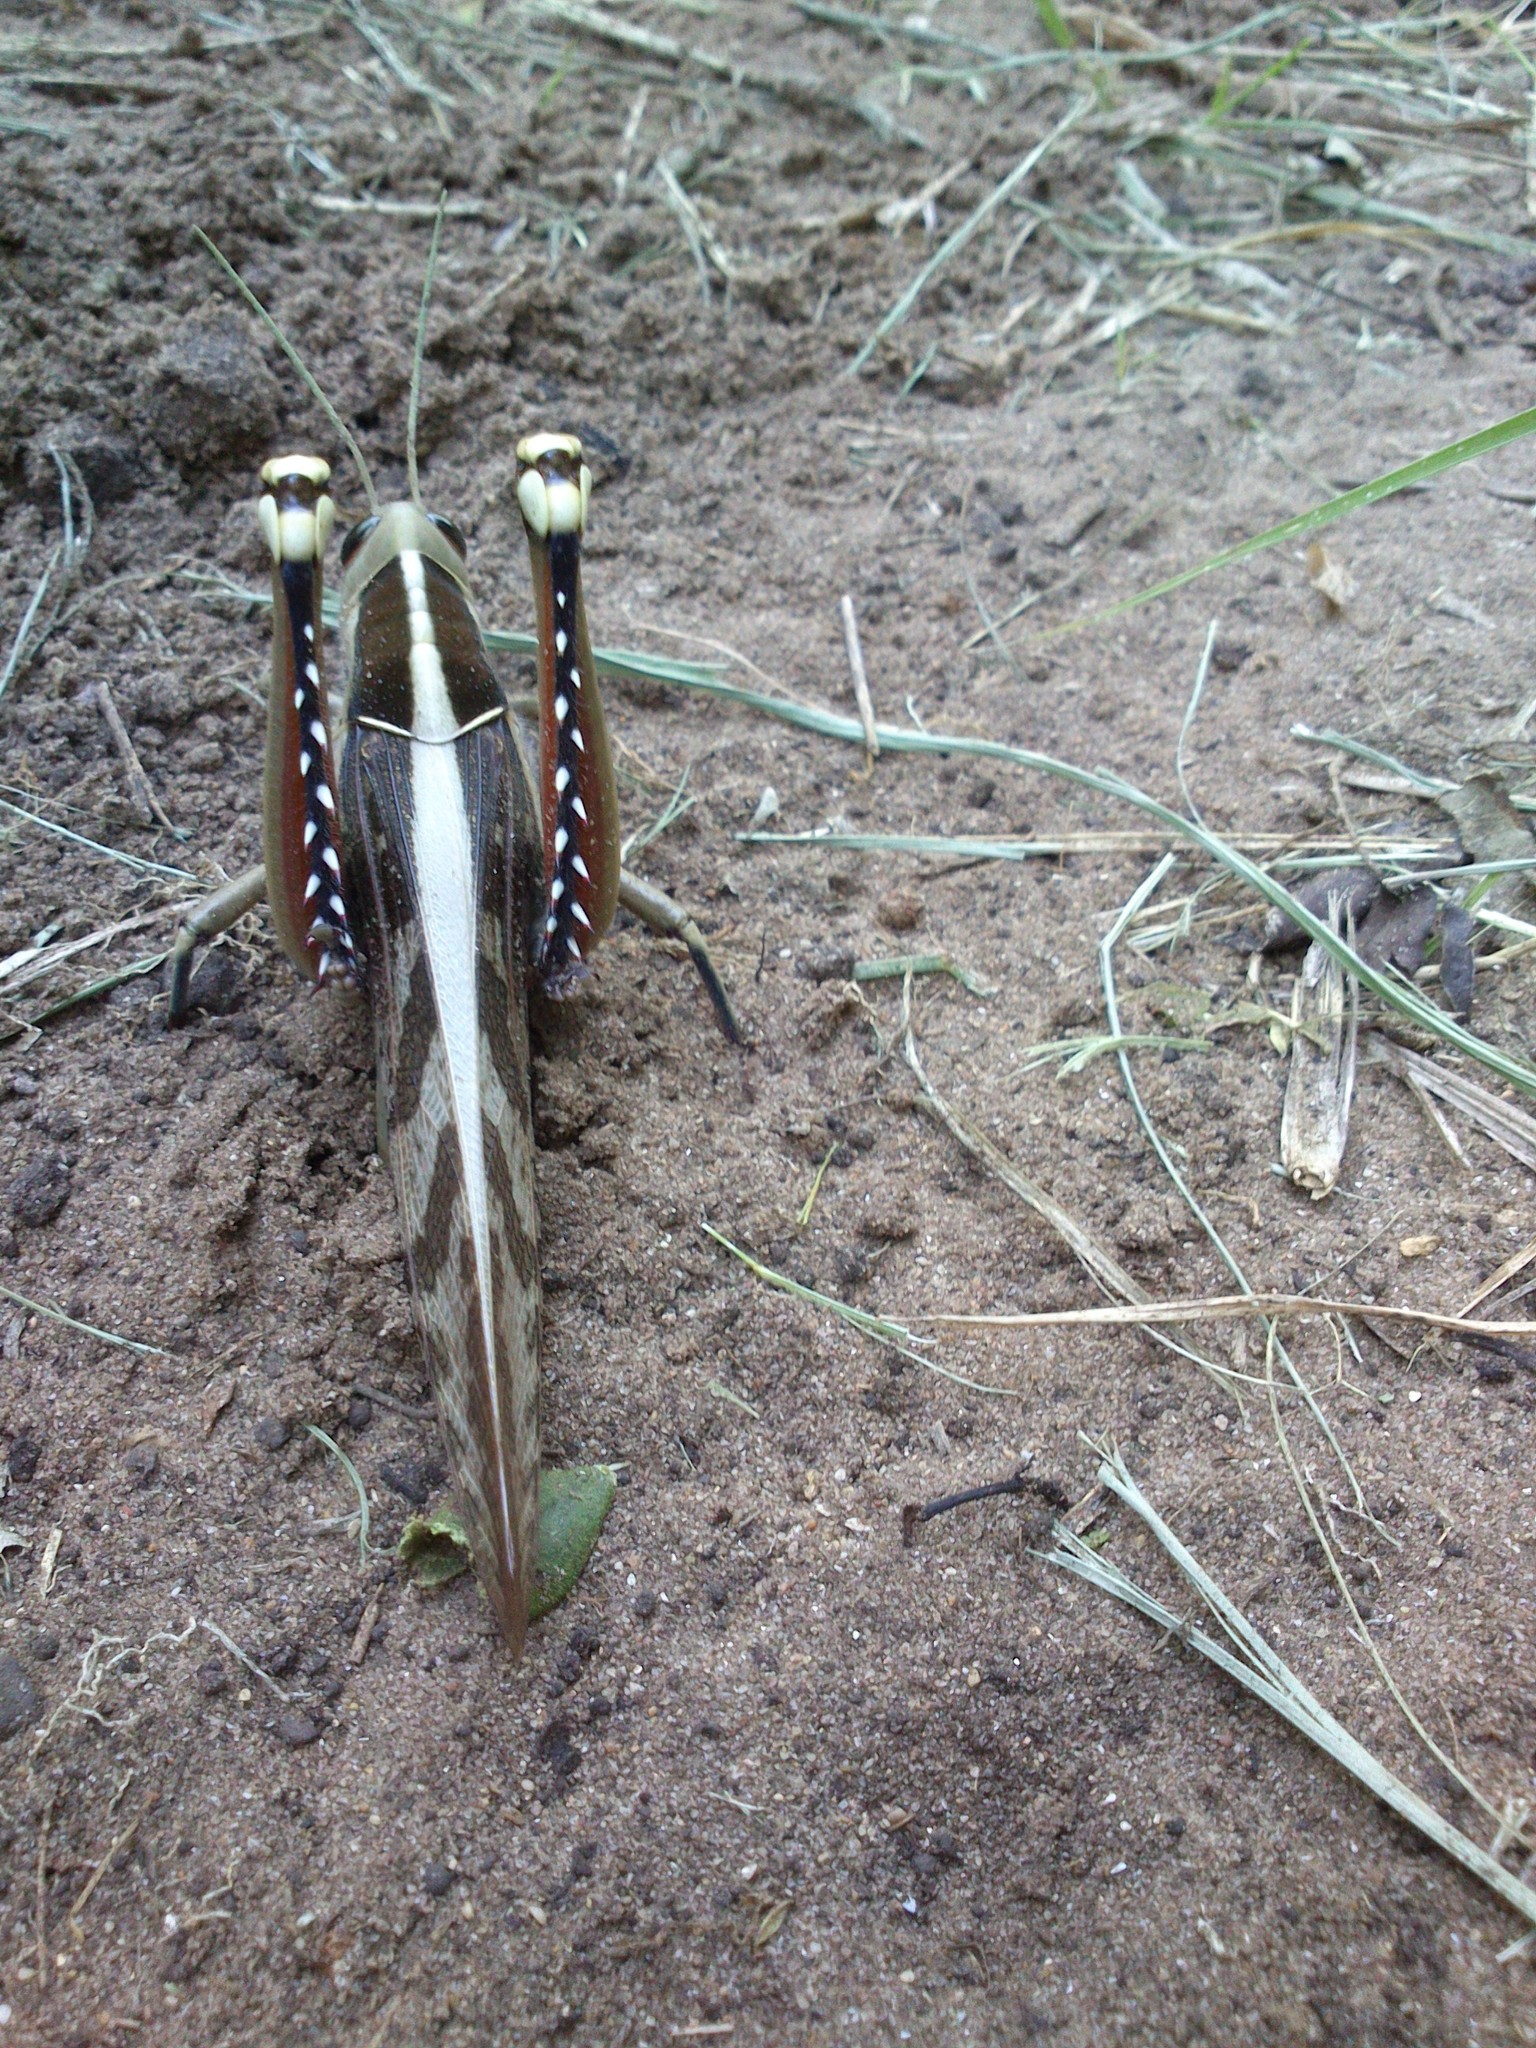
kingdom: Animalia
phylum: Arthropoda
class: Insecta
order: Orthoptera
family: Acrididae
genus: Acanthacris
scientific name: Acanthacris ruficornis
